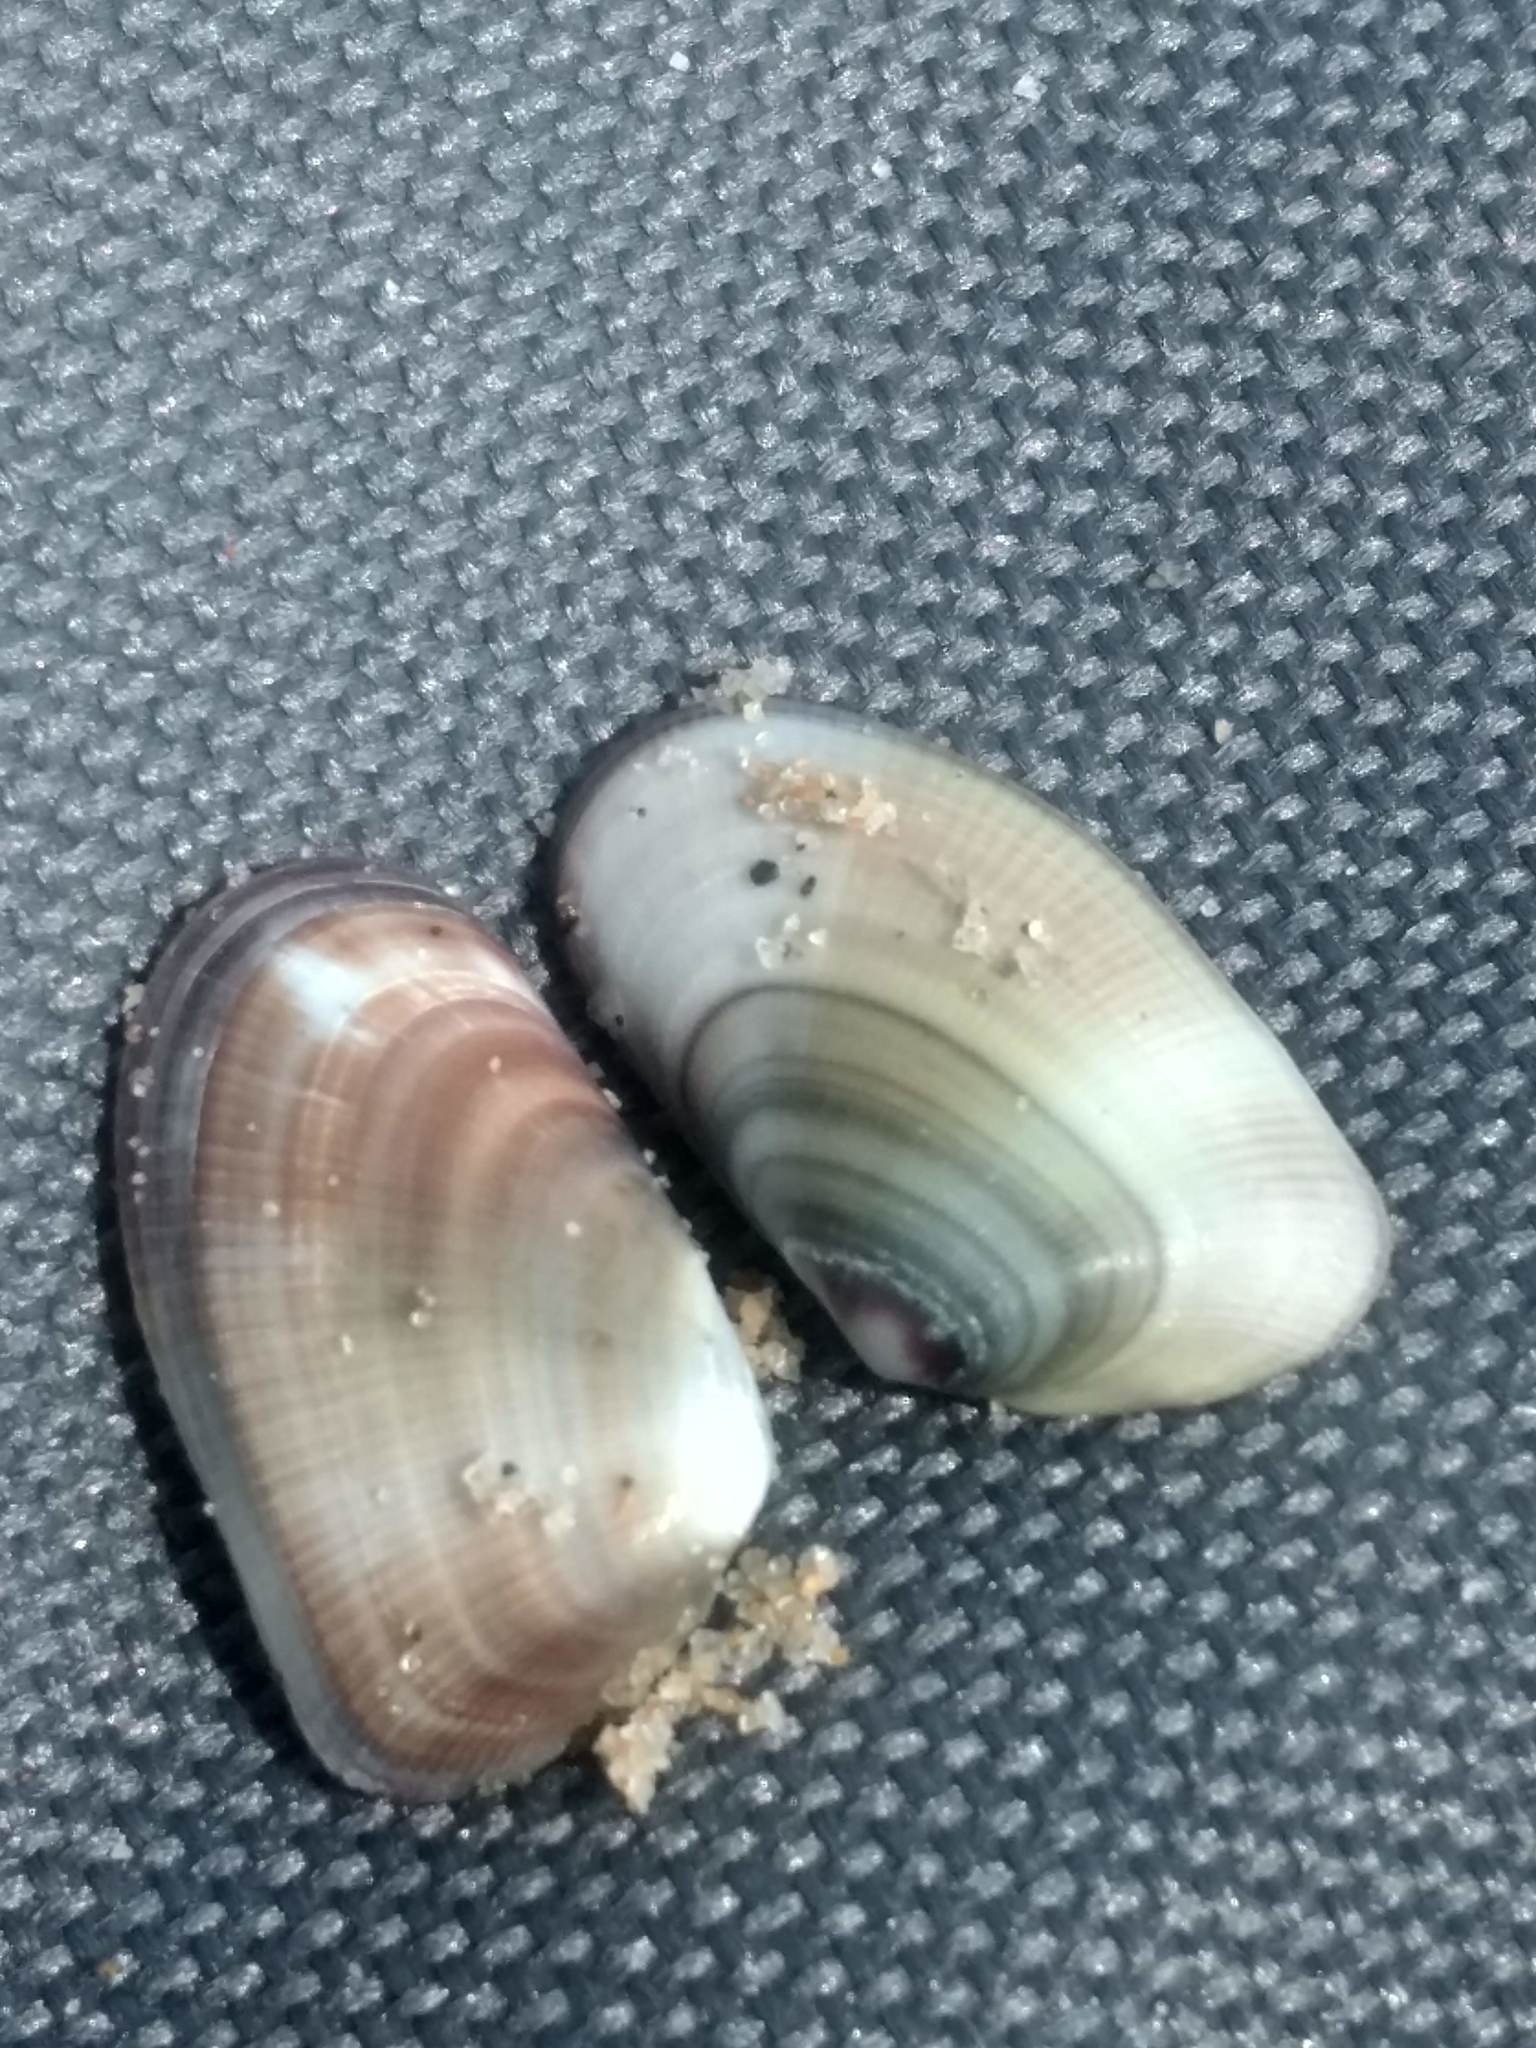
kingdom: Animalia
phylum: Mollusca
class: Bivalvia
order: Cardiida
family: Donacidae
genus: Donax
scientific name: Donax gouldii
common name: Gould beanclam
